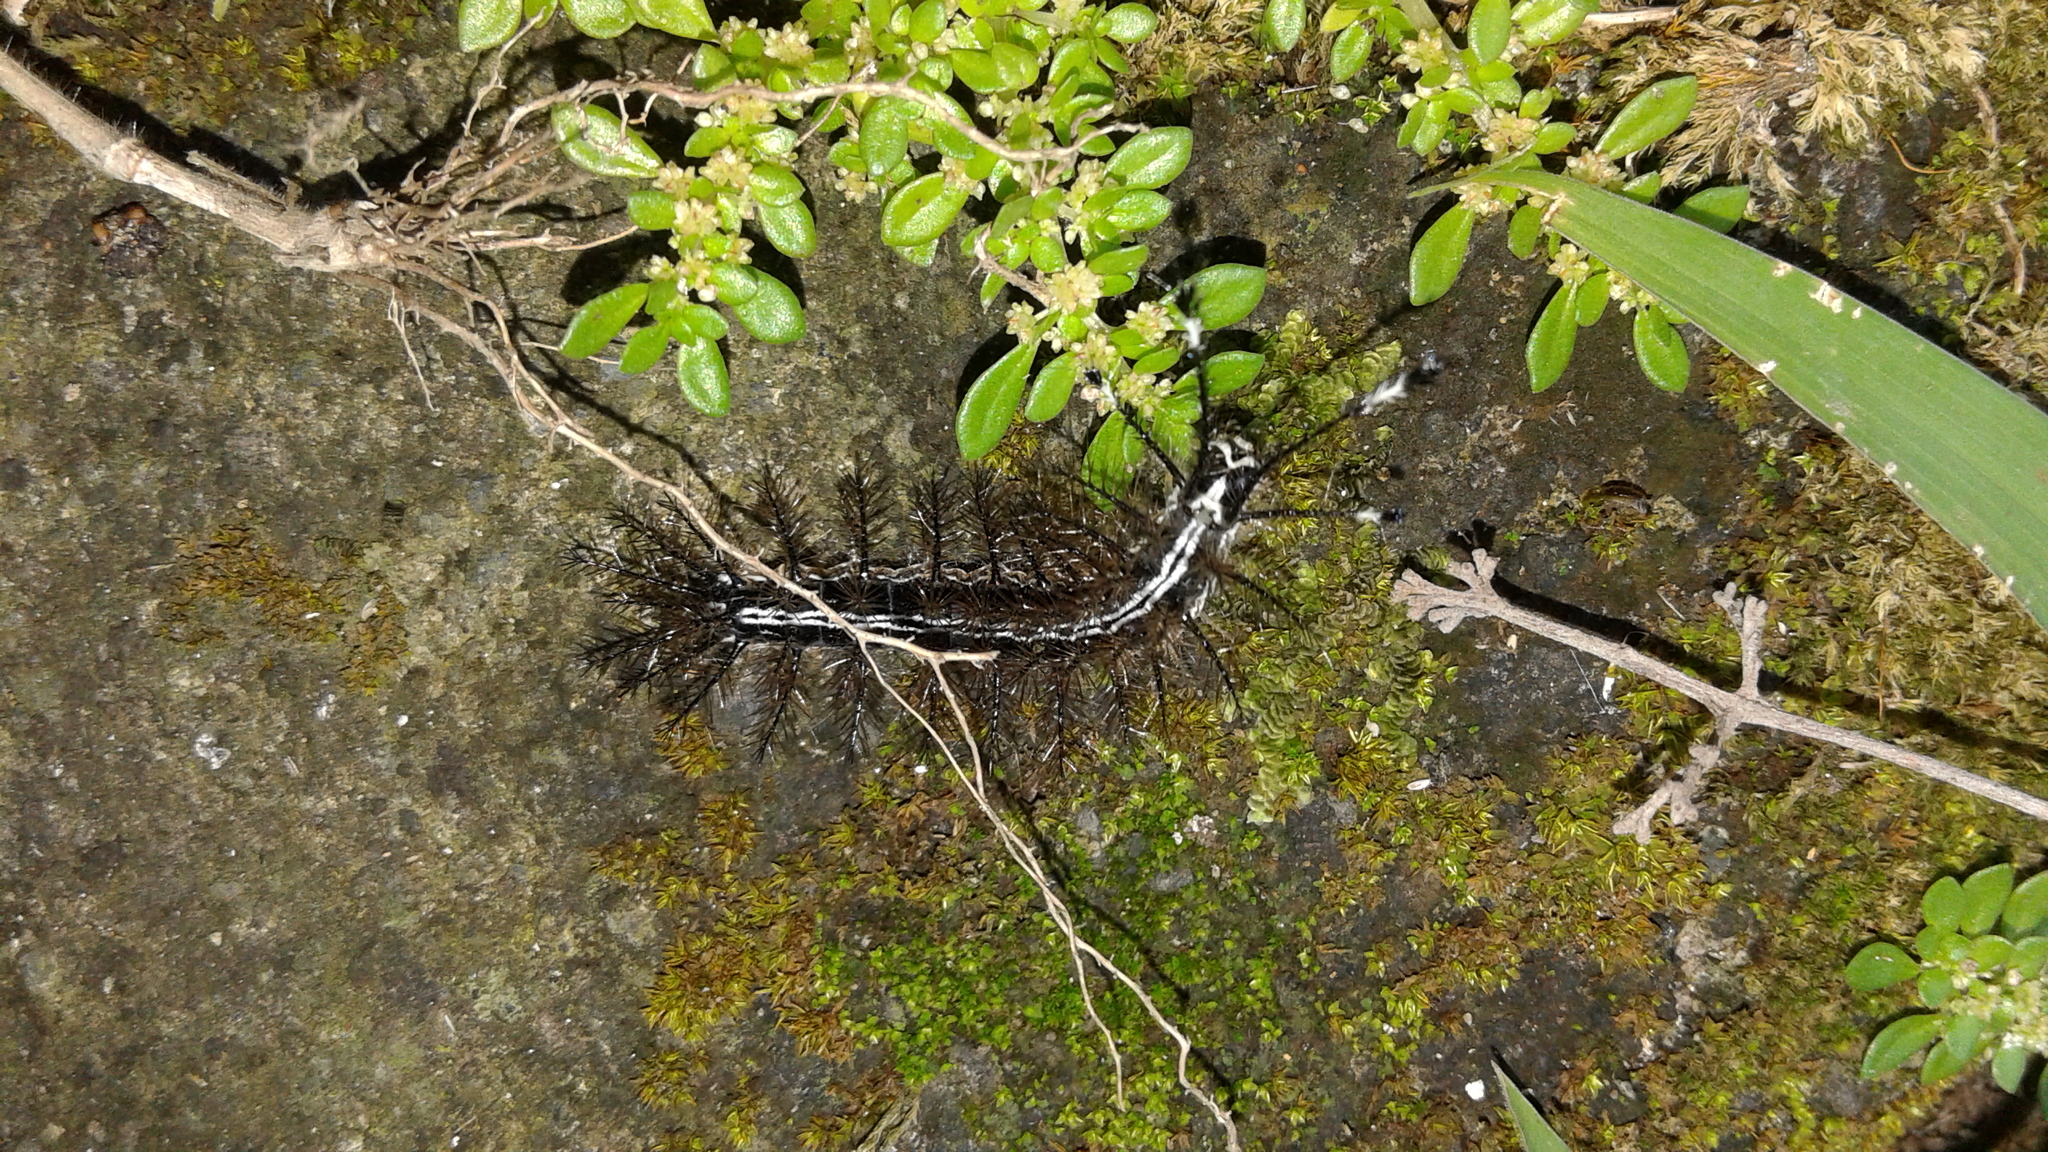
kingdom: Animalia
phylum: Arthropoda
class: Insecta
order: Lepidoptera
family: Saturniidae
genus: Hylesia
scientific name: Hylesia continua
